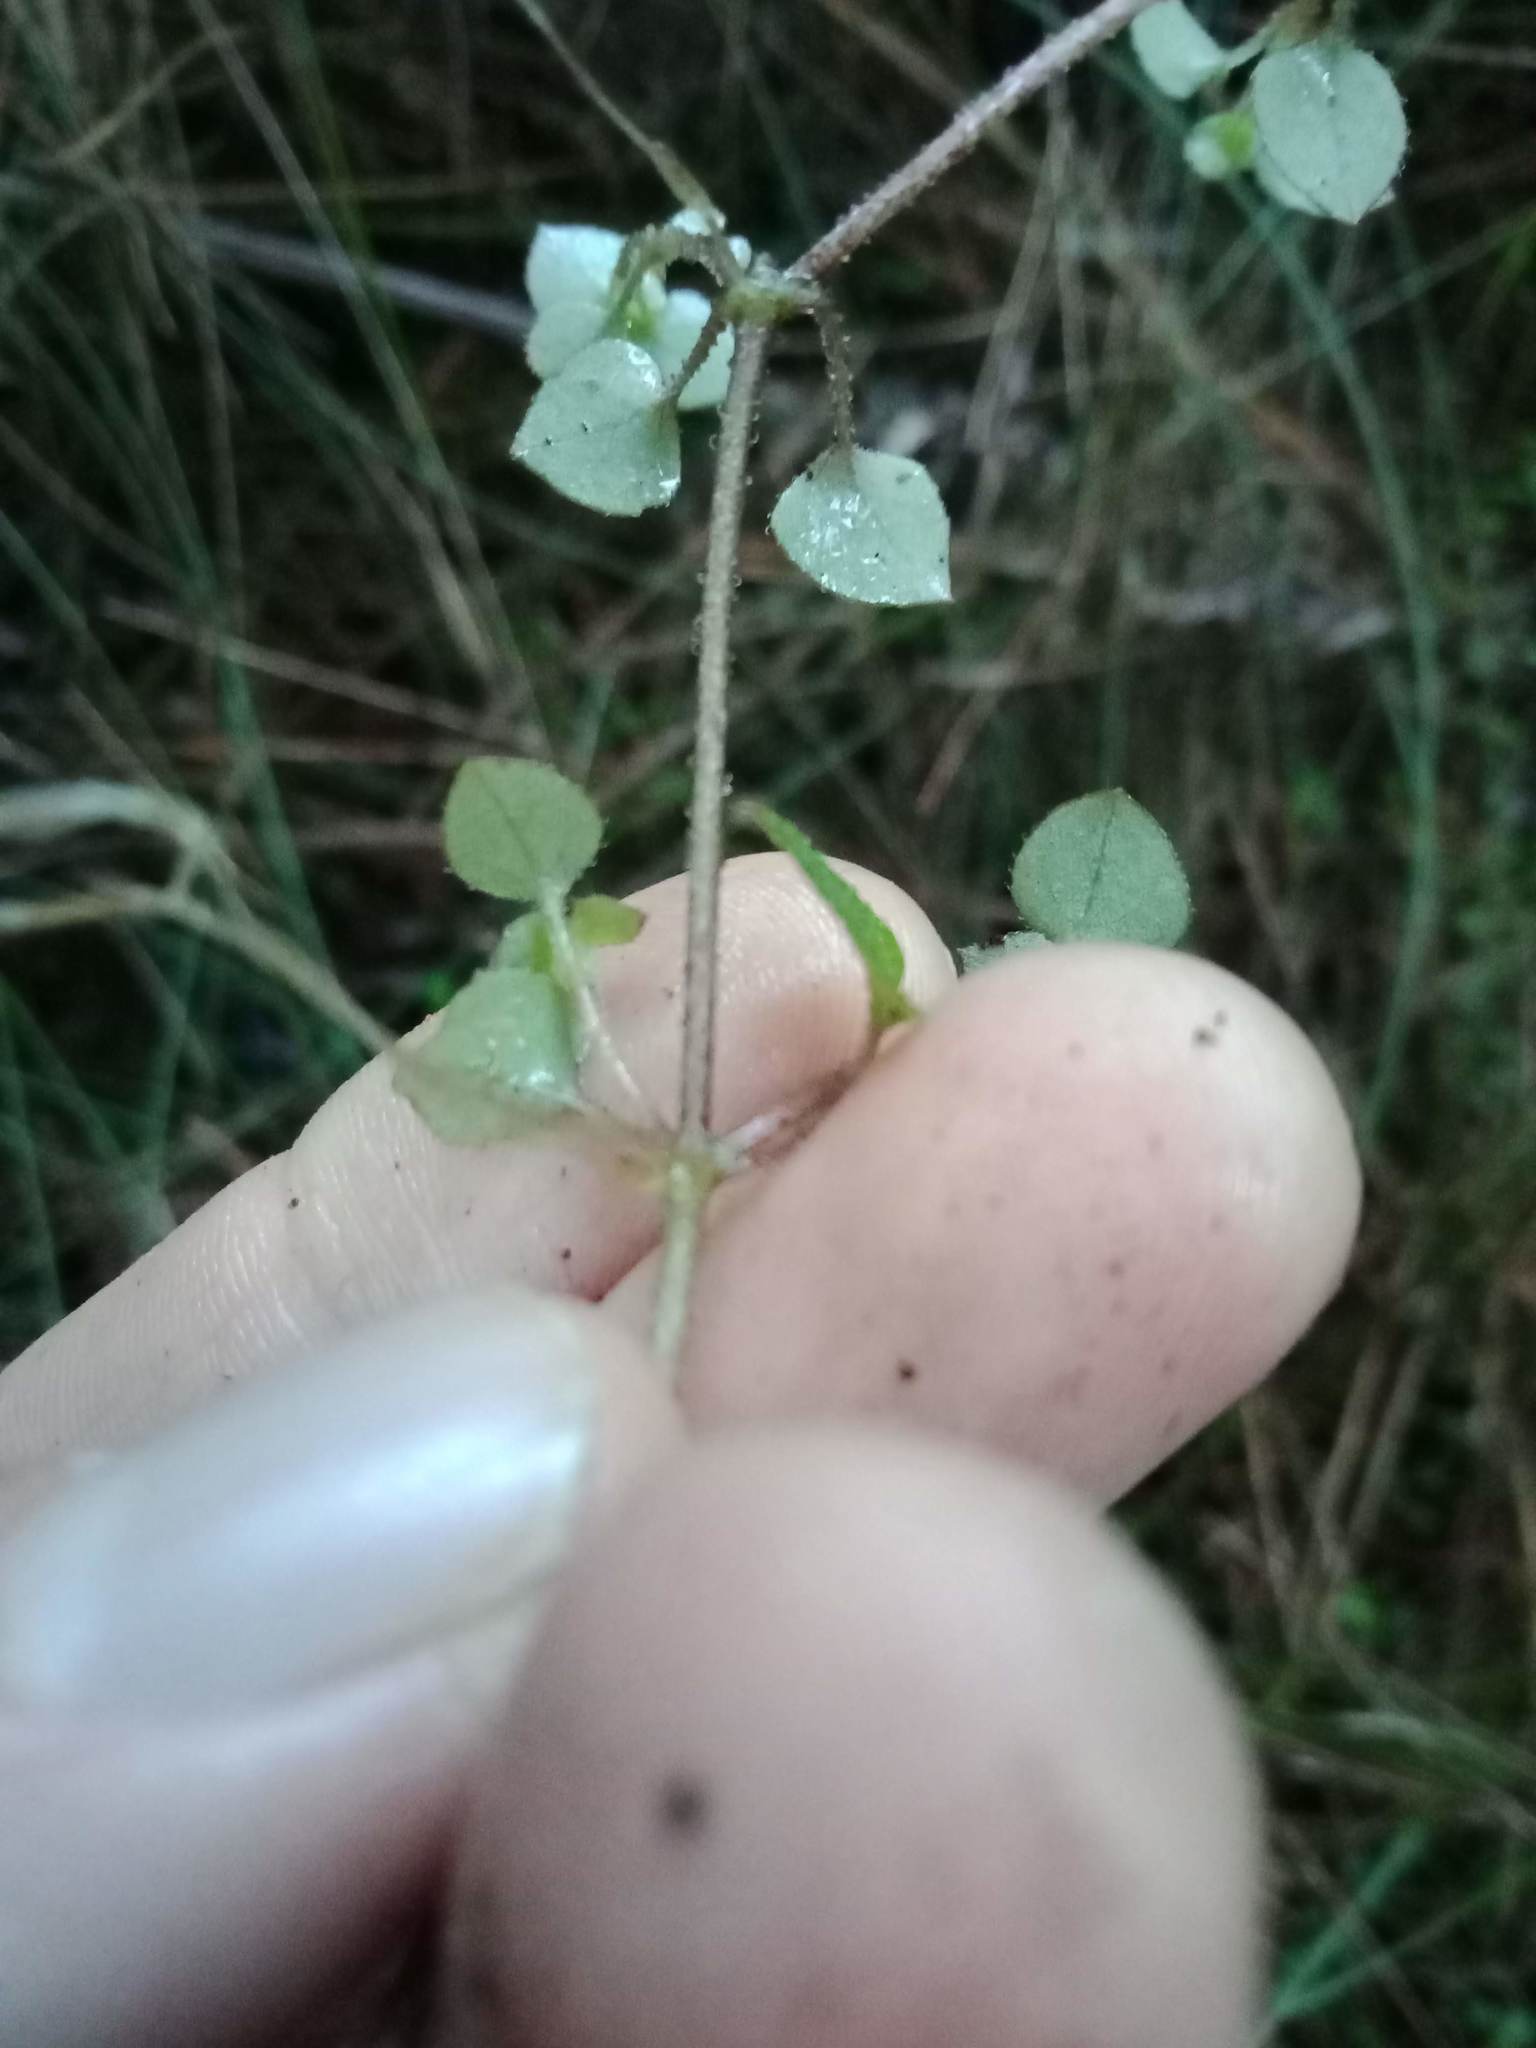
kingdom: Plantae
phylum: Tracheophyta
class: Magnoliopsida
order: Gentianales
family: Rubiaceae
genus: Nertera
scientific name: Nertera dichondrifolia
